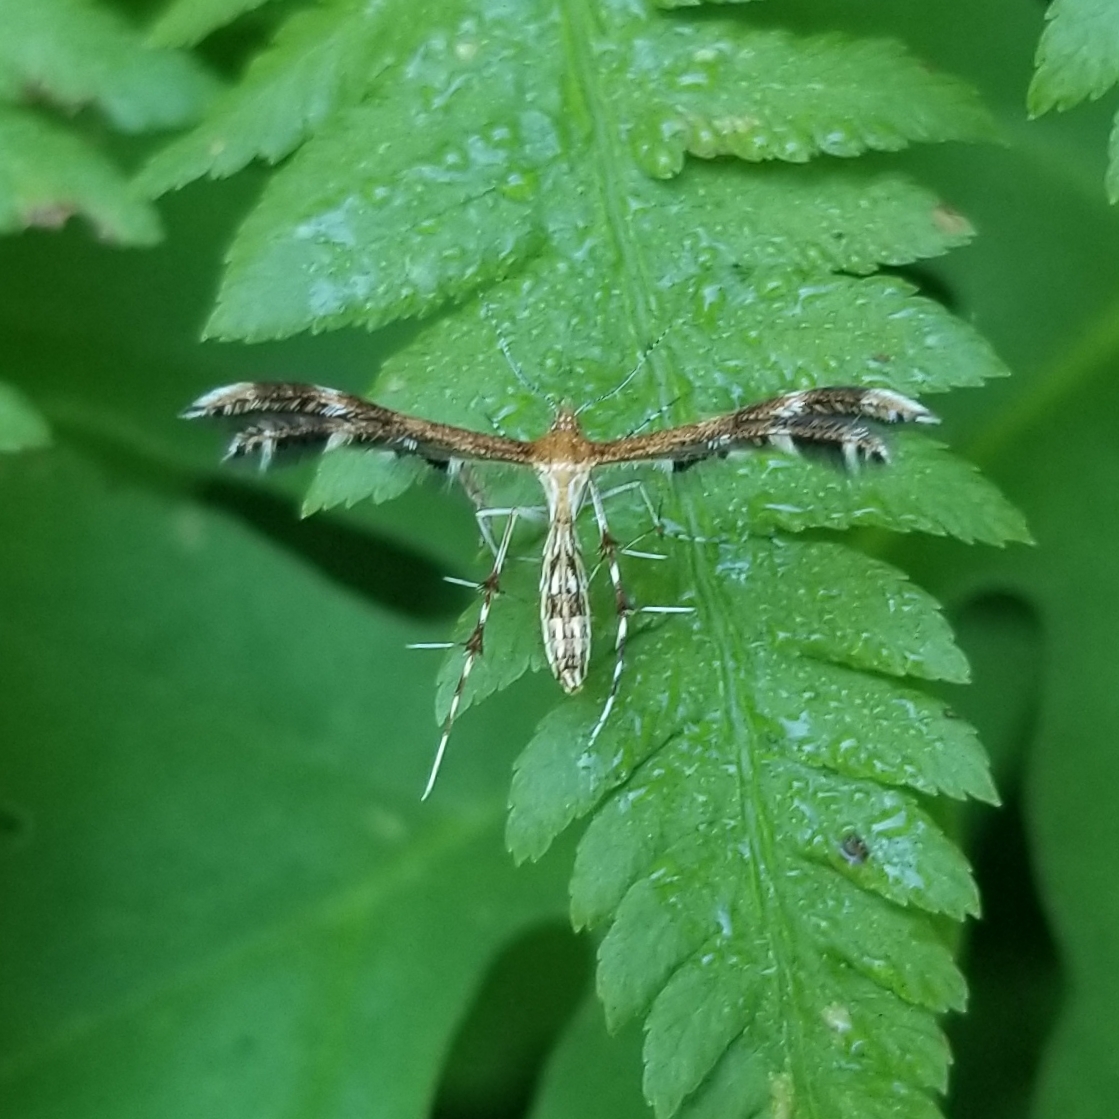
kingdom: Animalia
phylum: Arthropoda
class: Insecta
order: Lepidoptera
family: Pterophoridae
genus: Dejongia
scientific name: Dejongia lobidactylus
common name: Lobed plume moth
